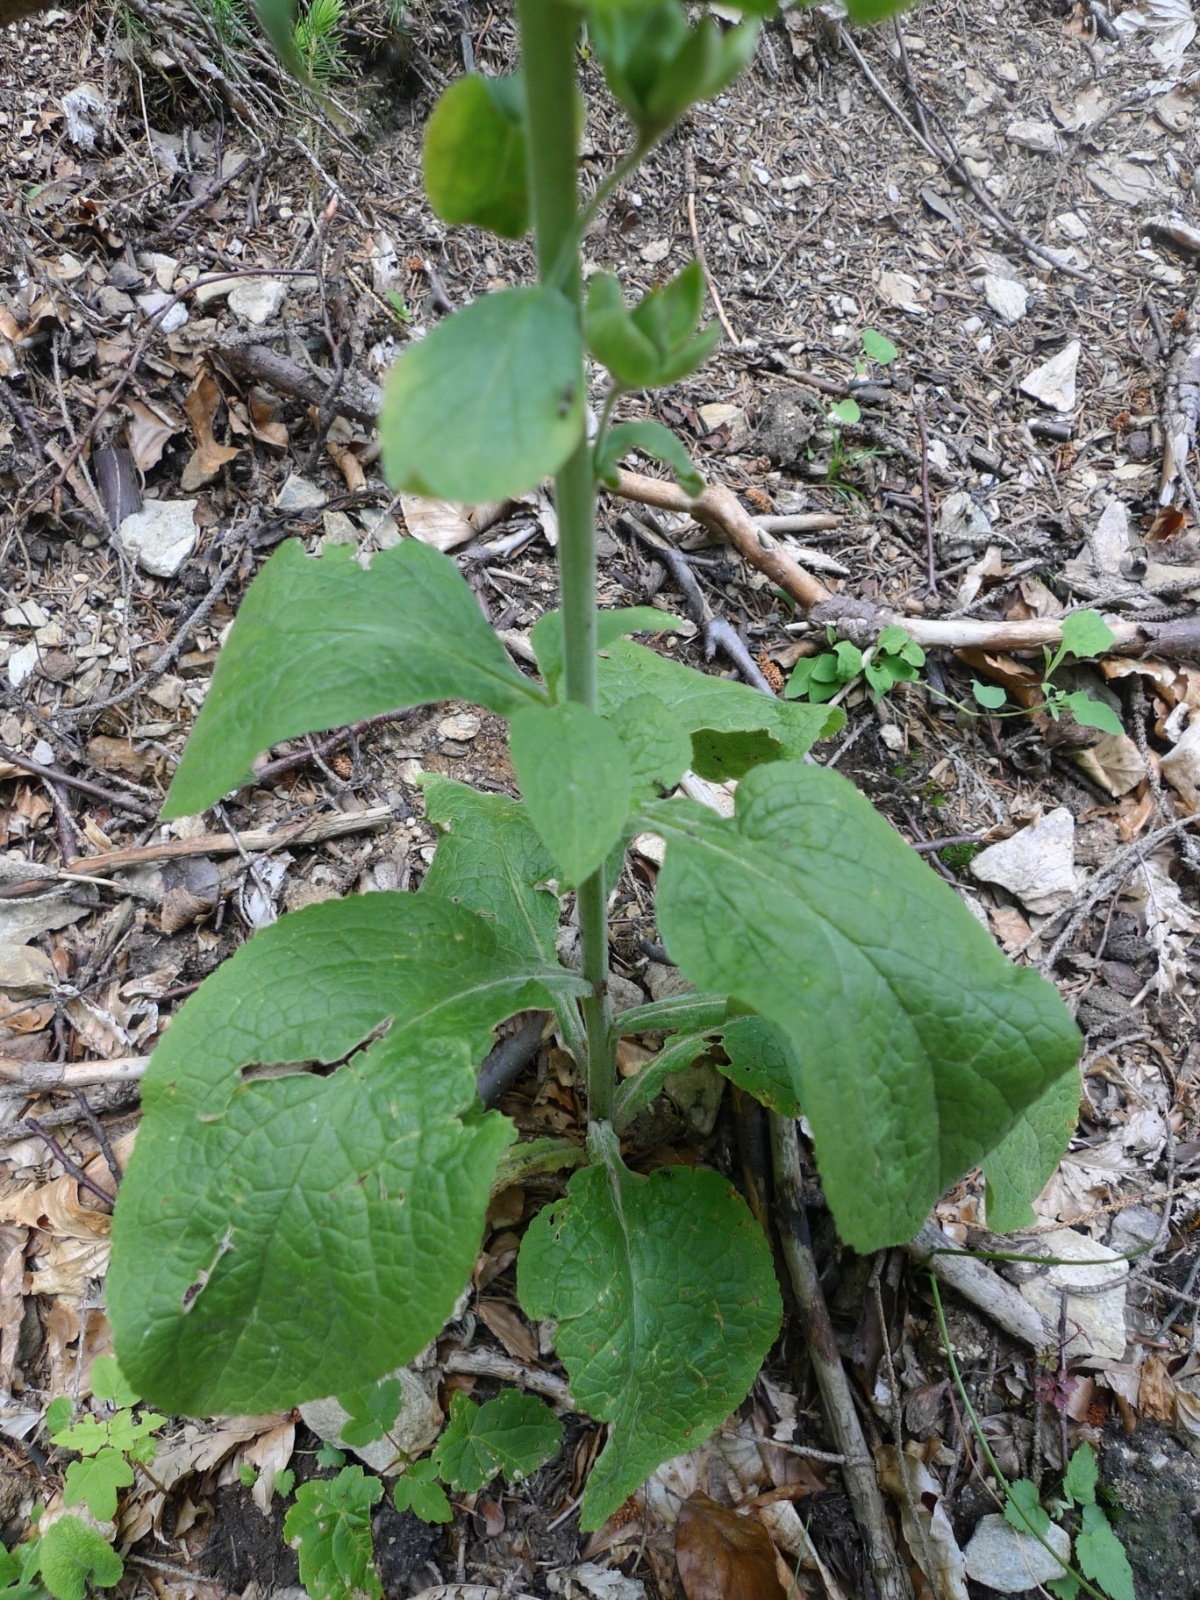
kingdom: Plantae
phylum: Tracheophyta
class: Magnoliopsida
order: Lamiales
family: Plantaginaceae
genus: Digitalis
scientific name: Digitalis purpurea
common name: Foxglove
